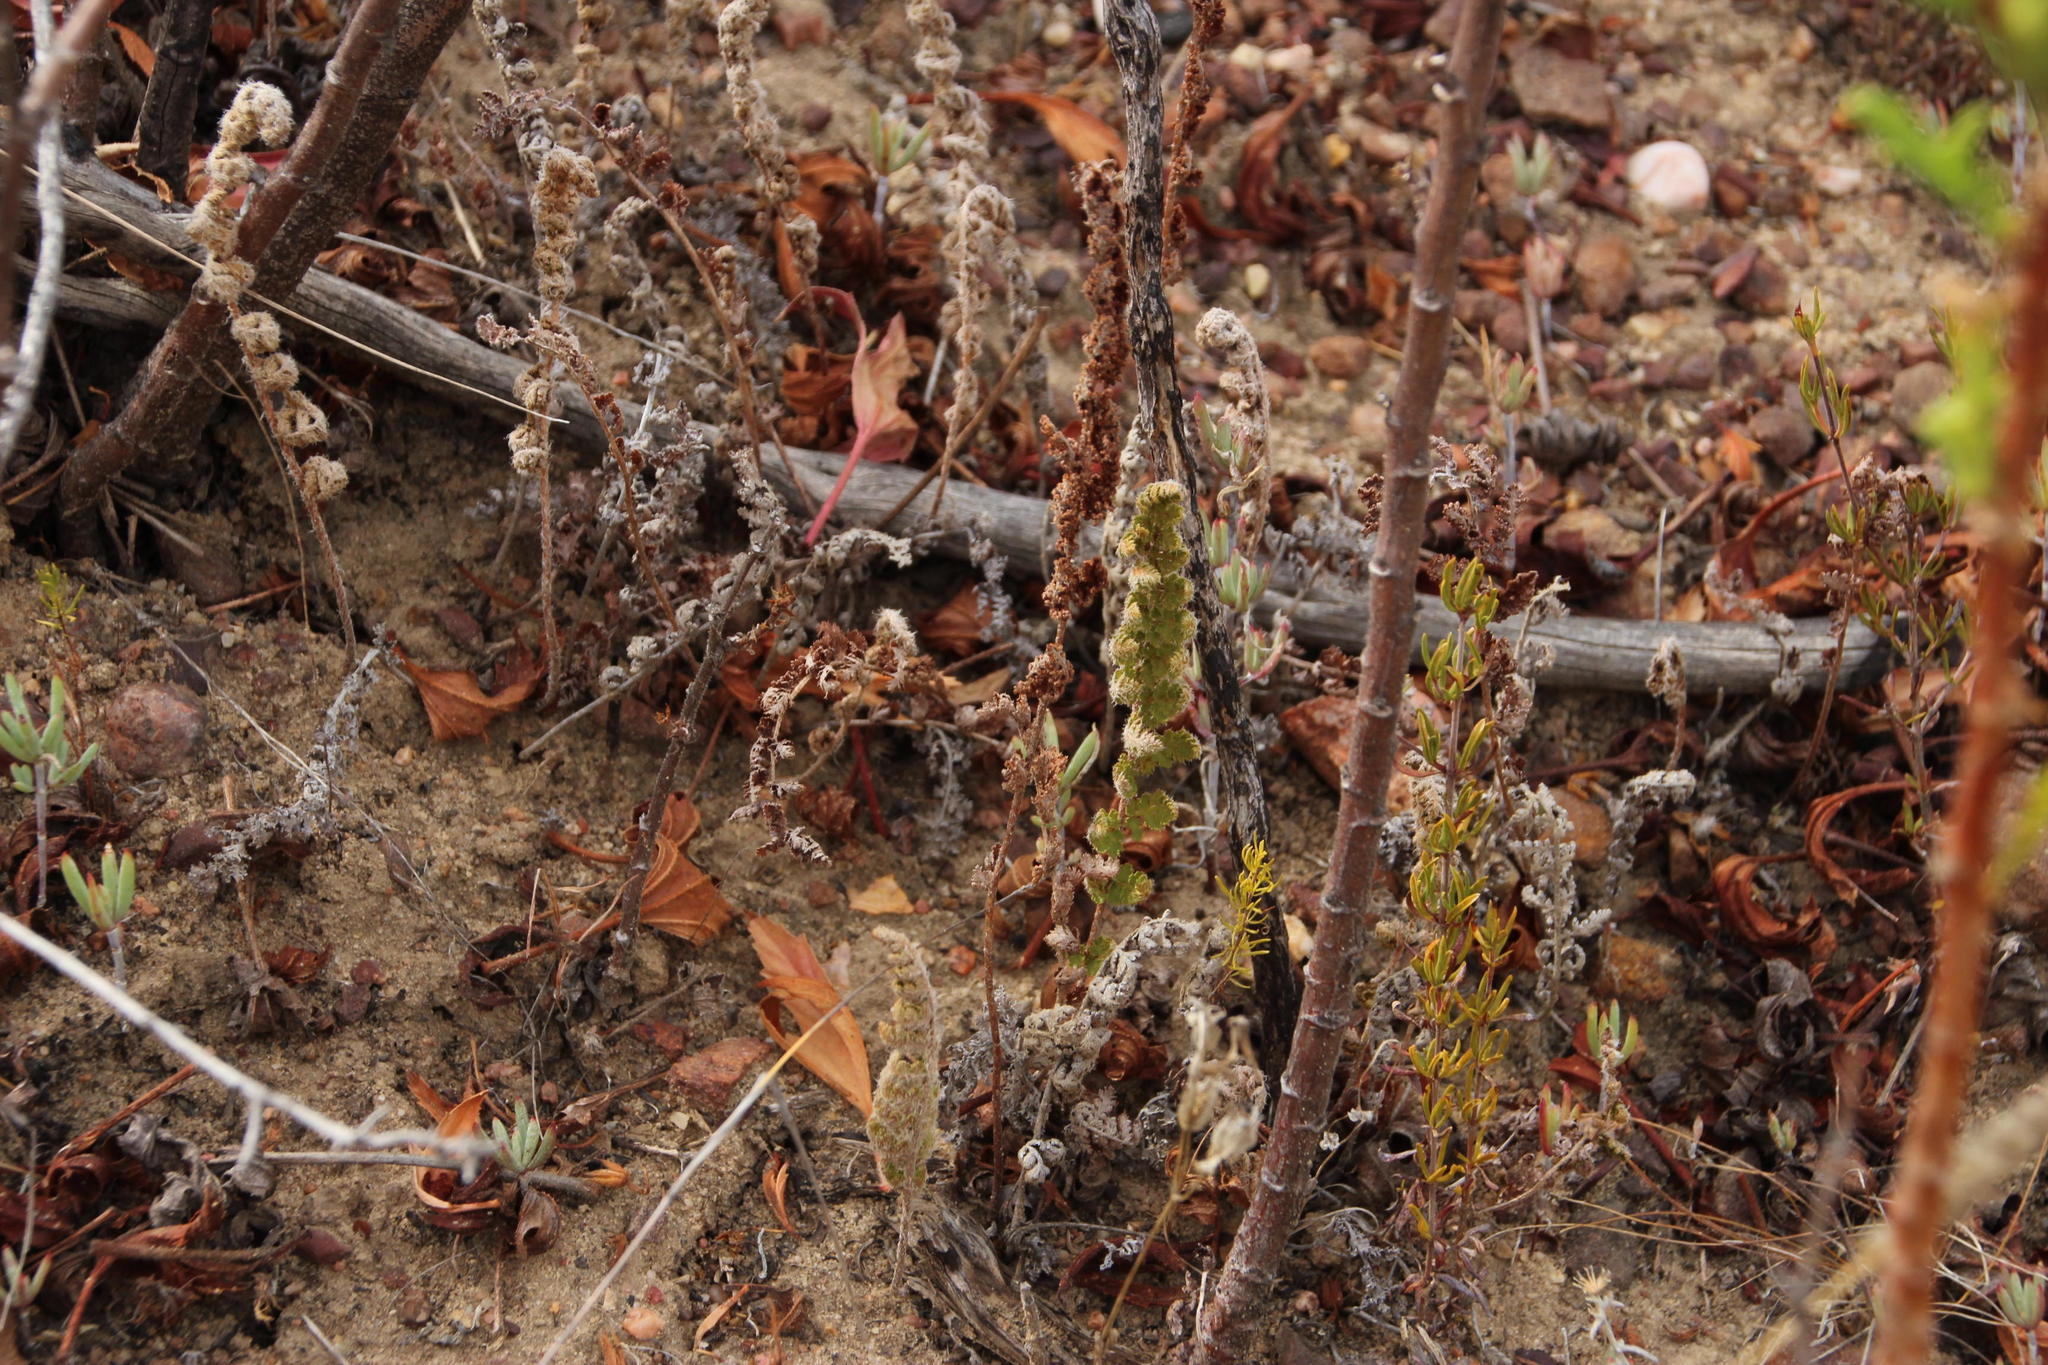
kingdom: Plantae
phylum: Tracheophyta
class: Polypodiopsida
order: Schizaeales
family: Anemiaceae
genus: Anemia
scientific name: Anemia caffrorum
